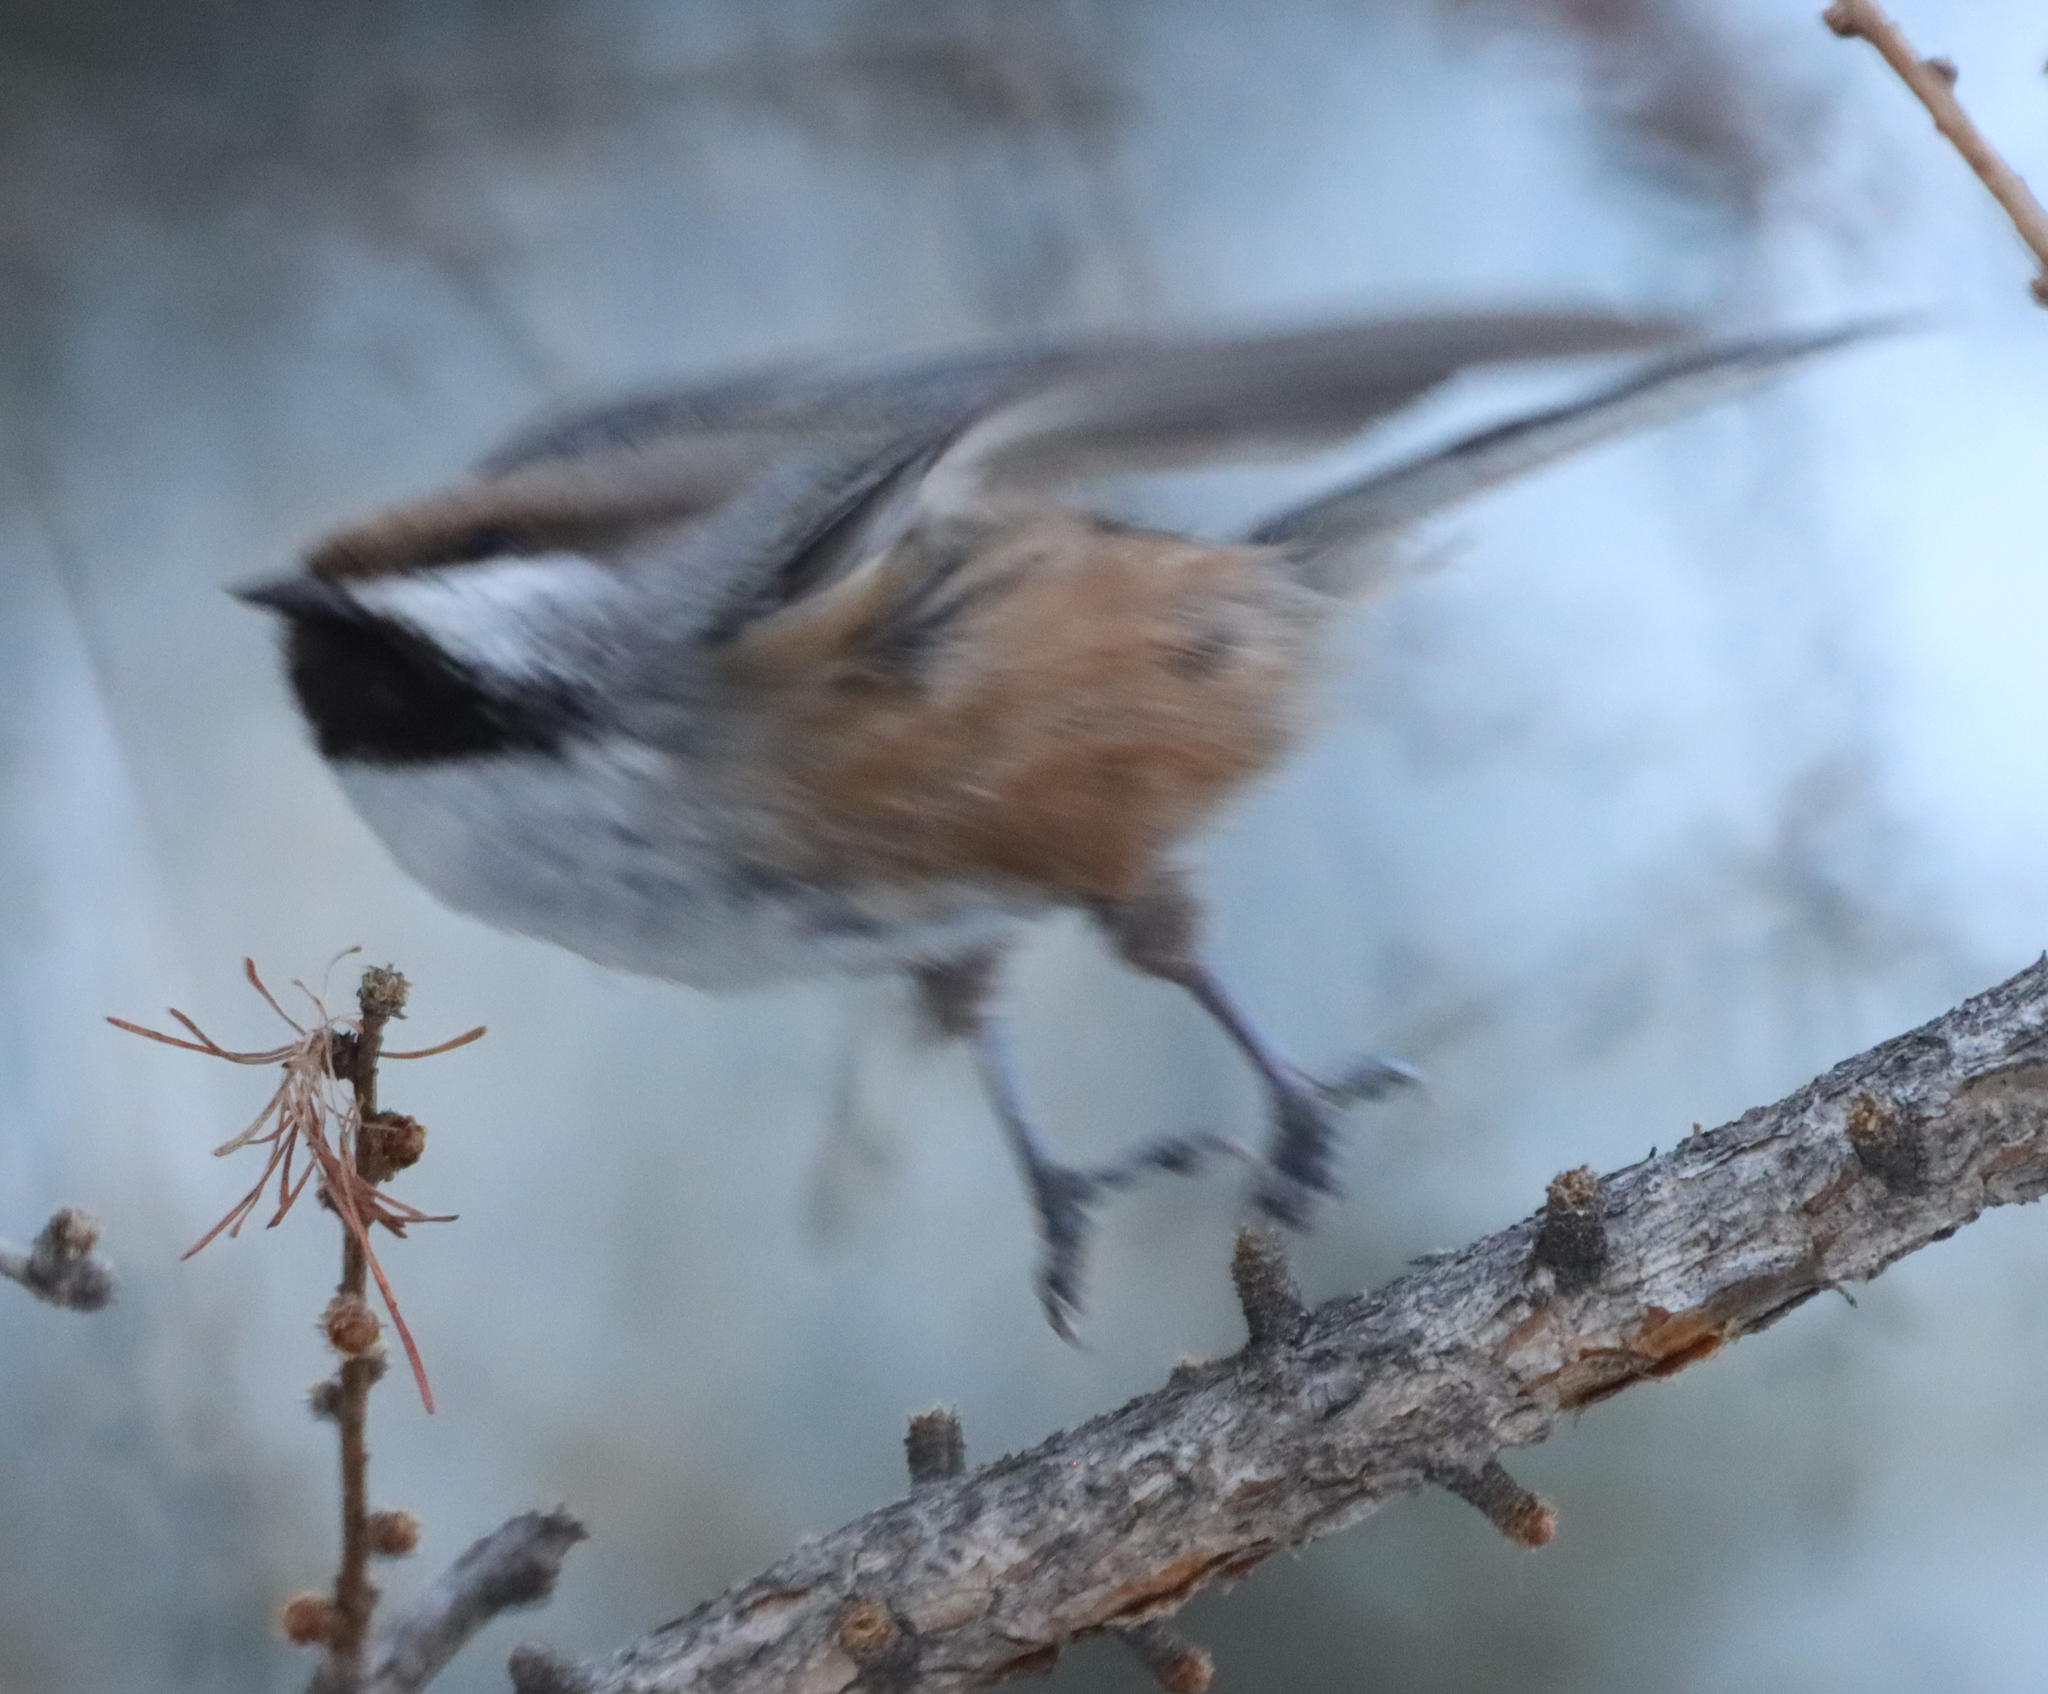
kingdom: Animalia
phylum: Chordata
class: Aves
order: Passeriformes
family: Paridae
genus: Poecile
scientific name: Poecile hudsonicus
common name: Boreal chickadee
